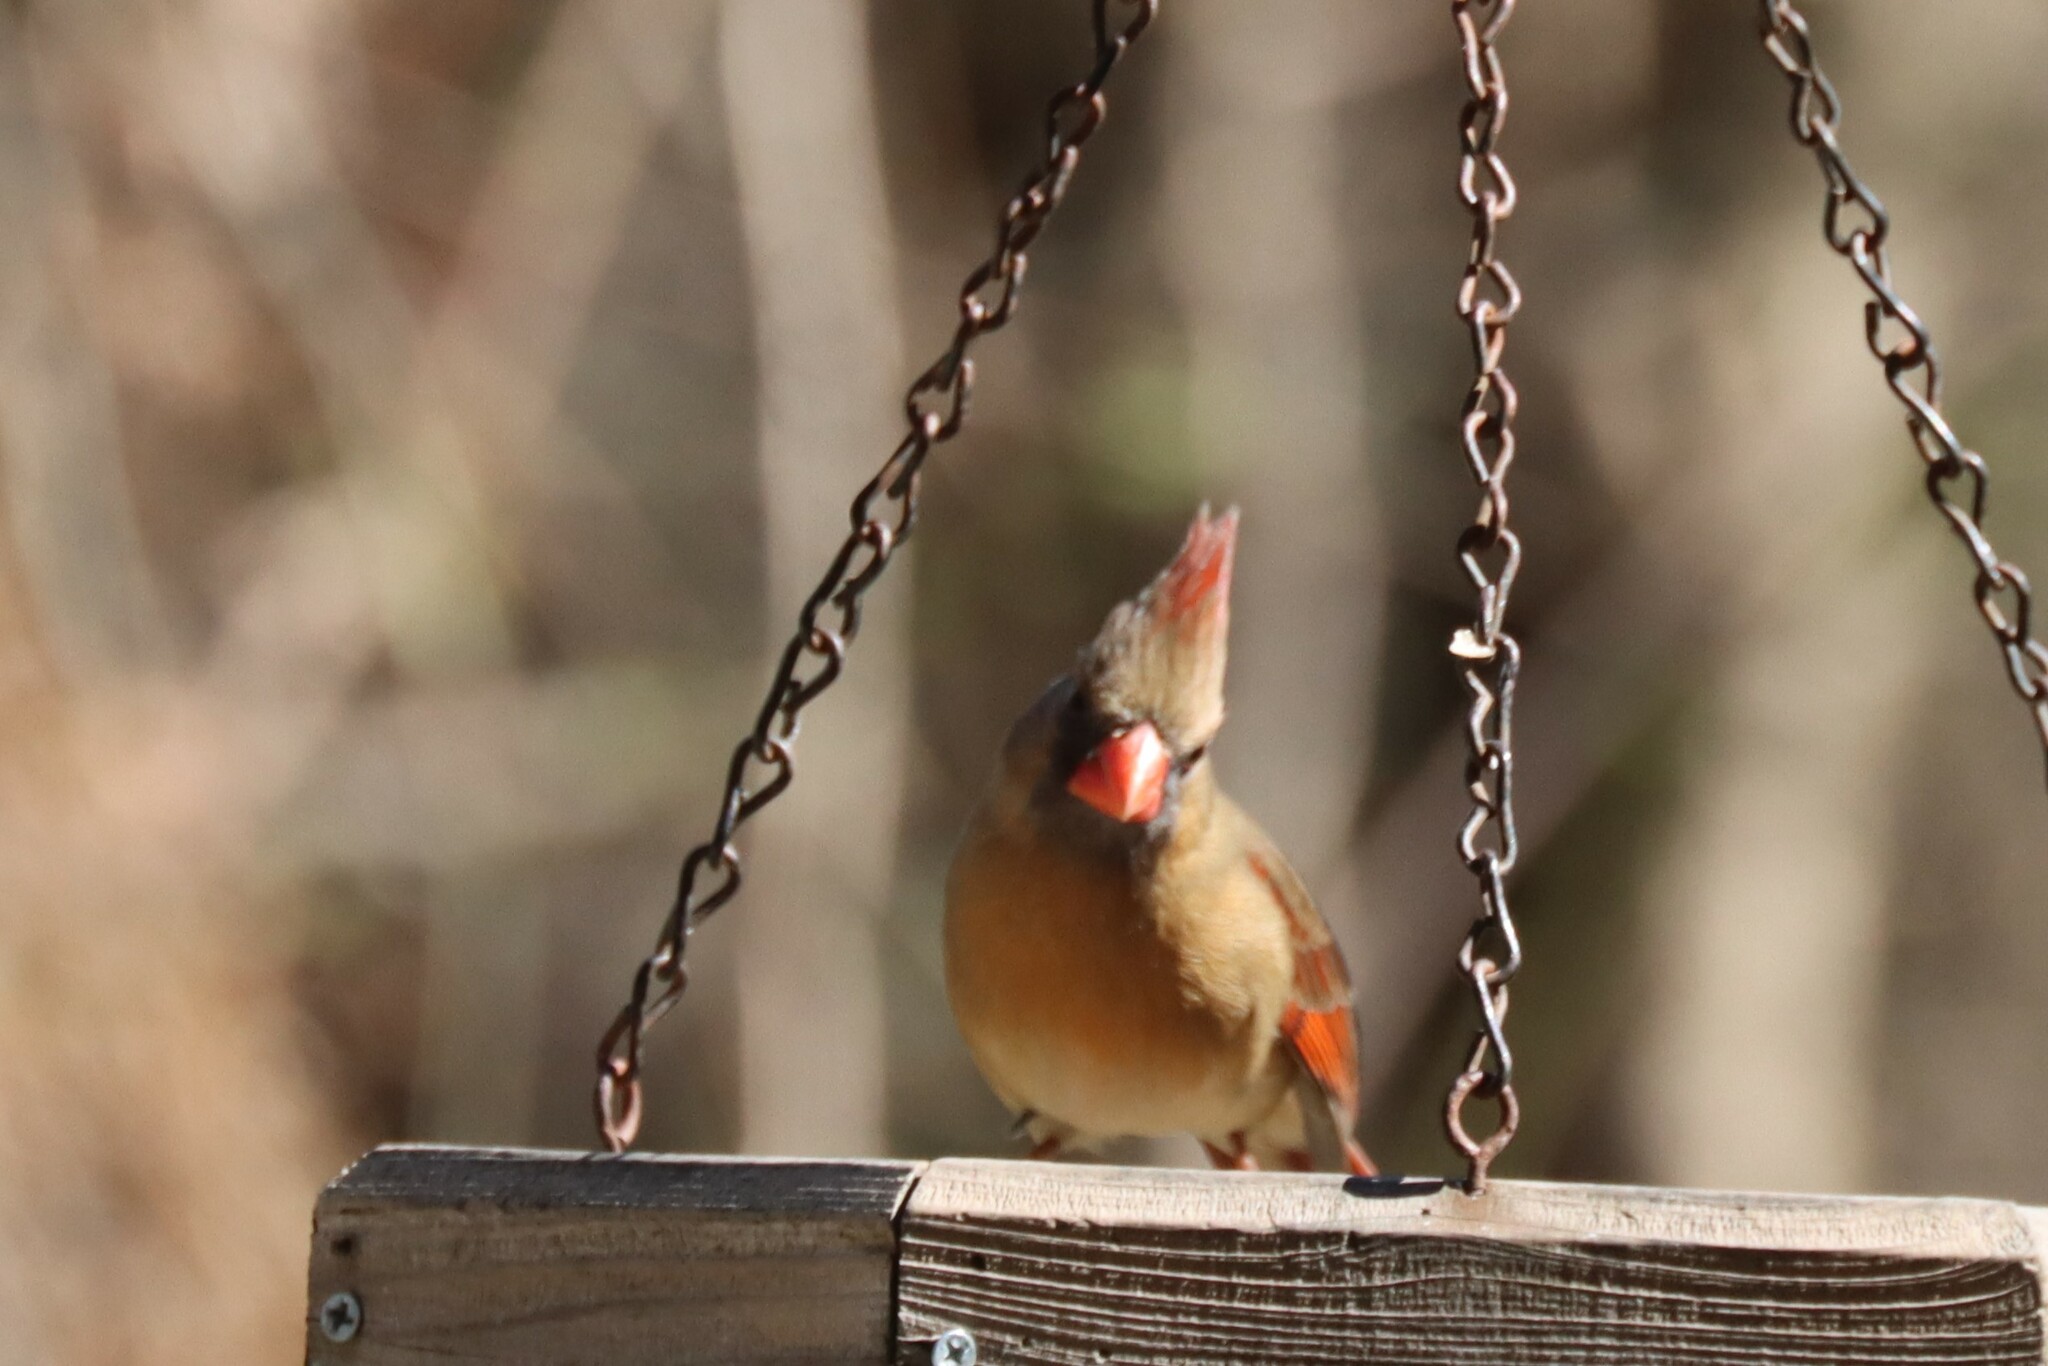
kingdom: Animalia
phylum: Chordata
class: Aves
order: Passeriformes
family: Cardinalidae
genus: Cardinalis
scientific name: Cardinalis cardinalis
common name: Northern cardinal
